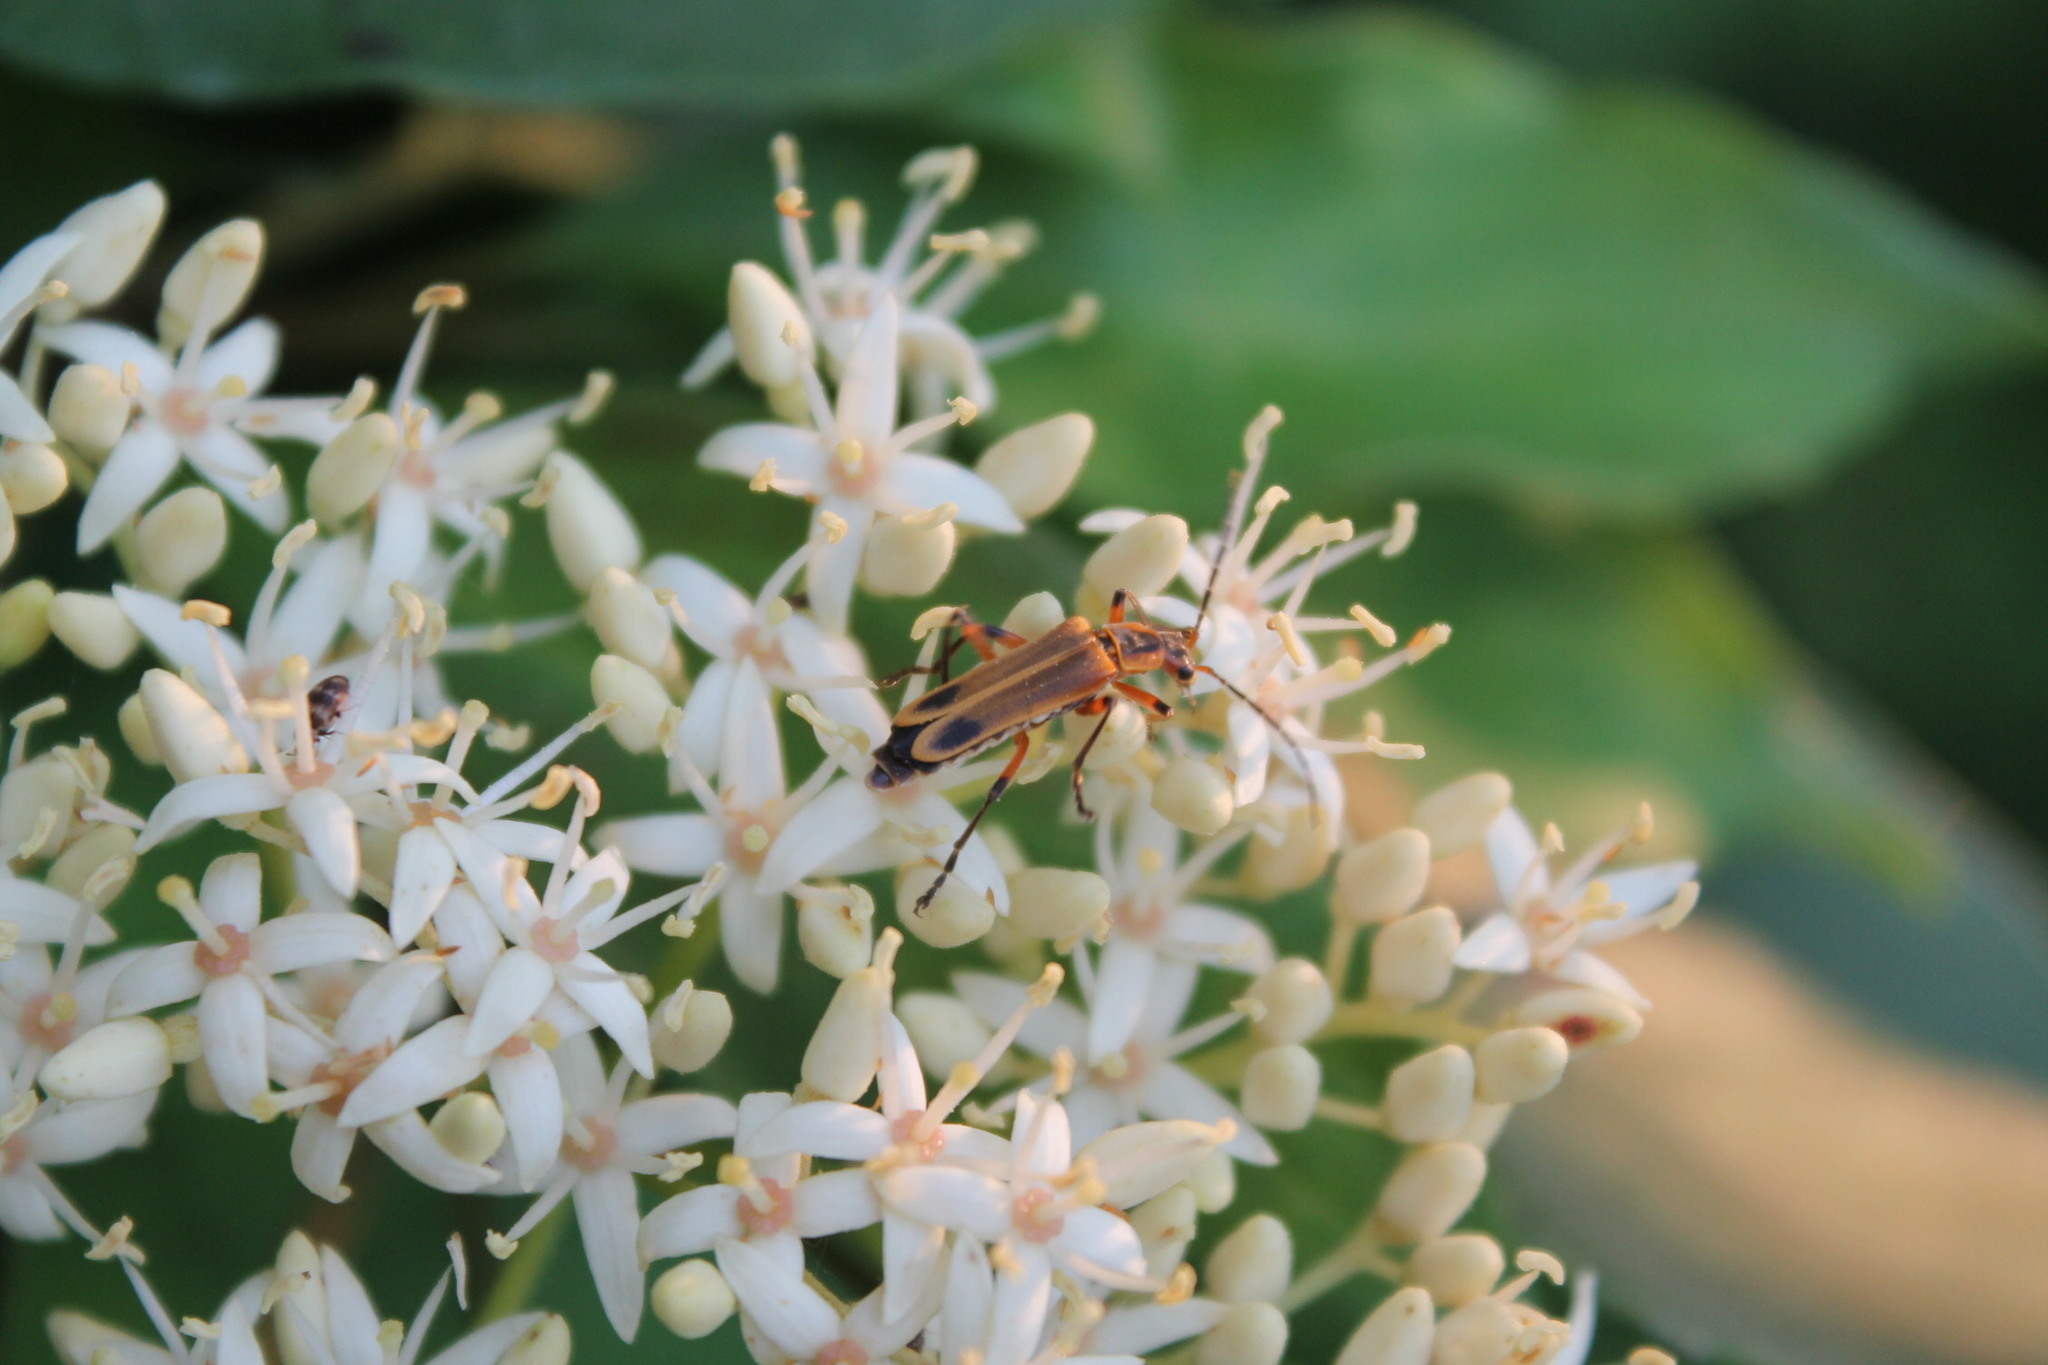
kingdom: Animalia
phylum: Arthropoda
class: Insecta
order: Coleoptera
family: Cantharidae
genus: Chauliognathus
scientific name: Chauliognathus marginatus
